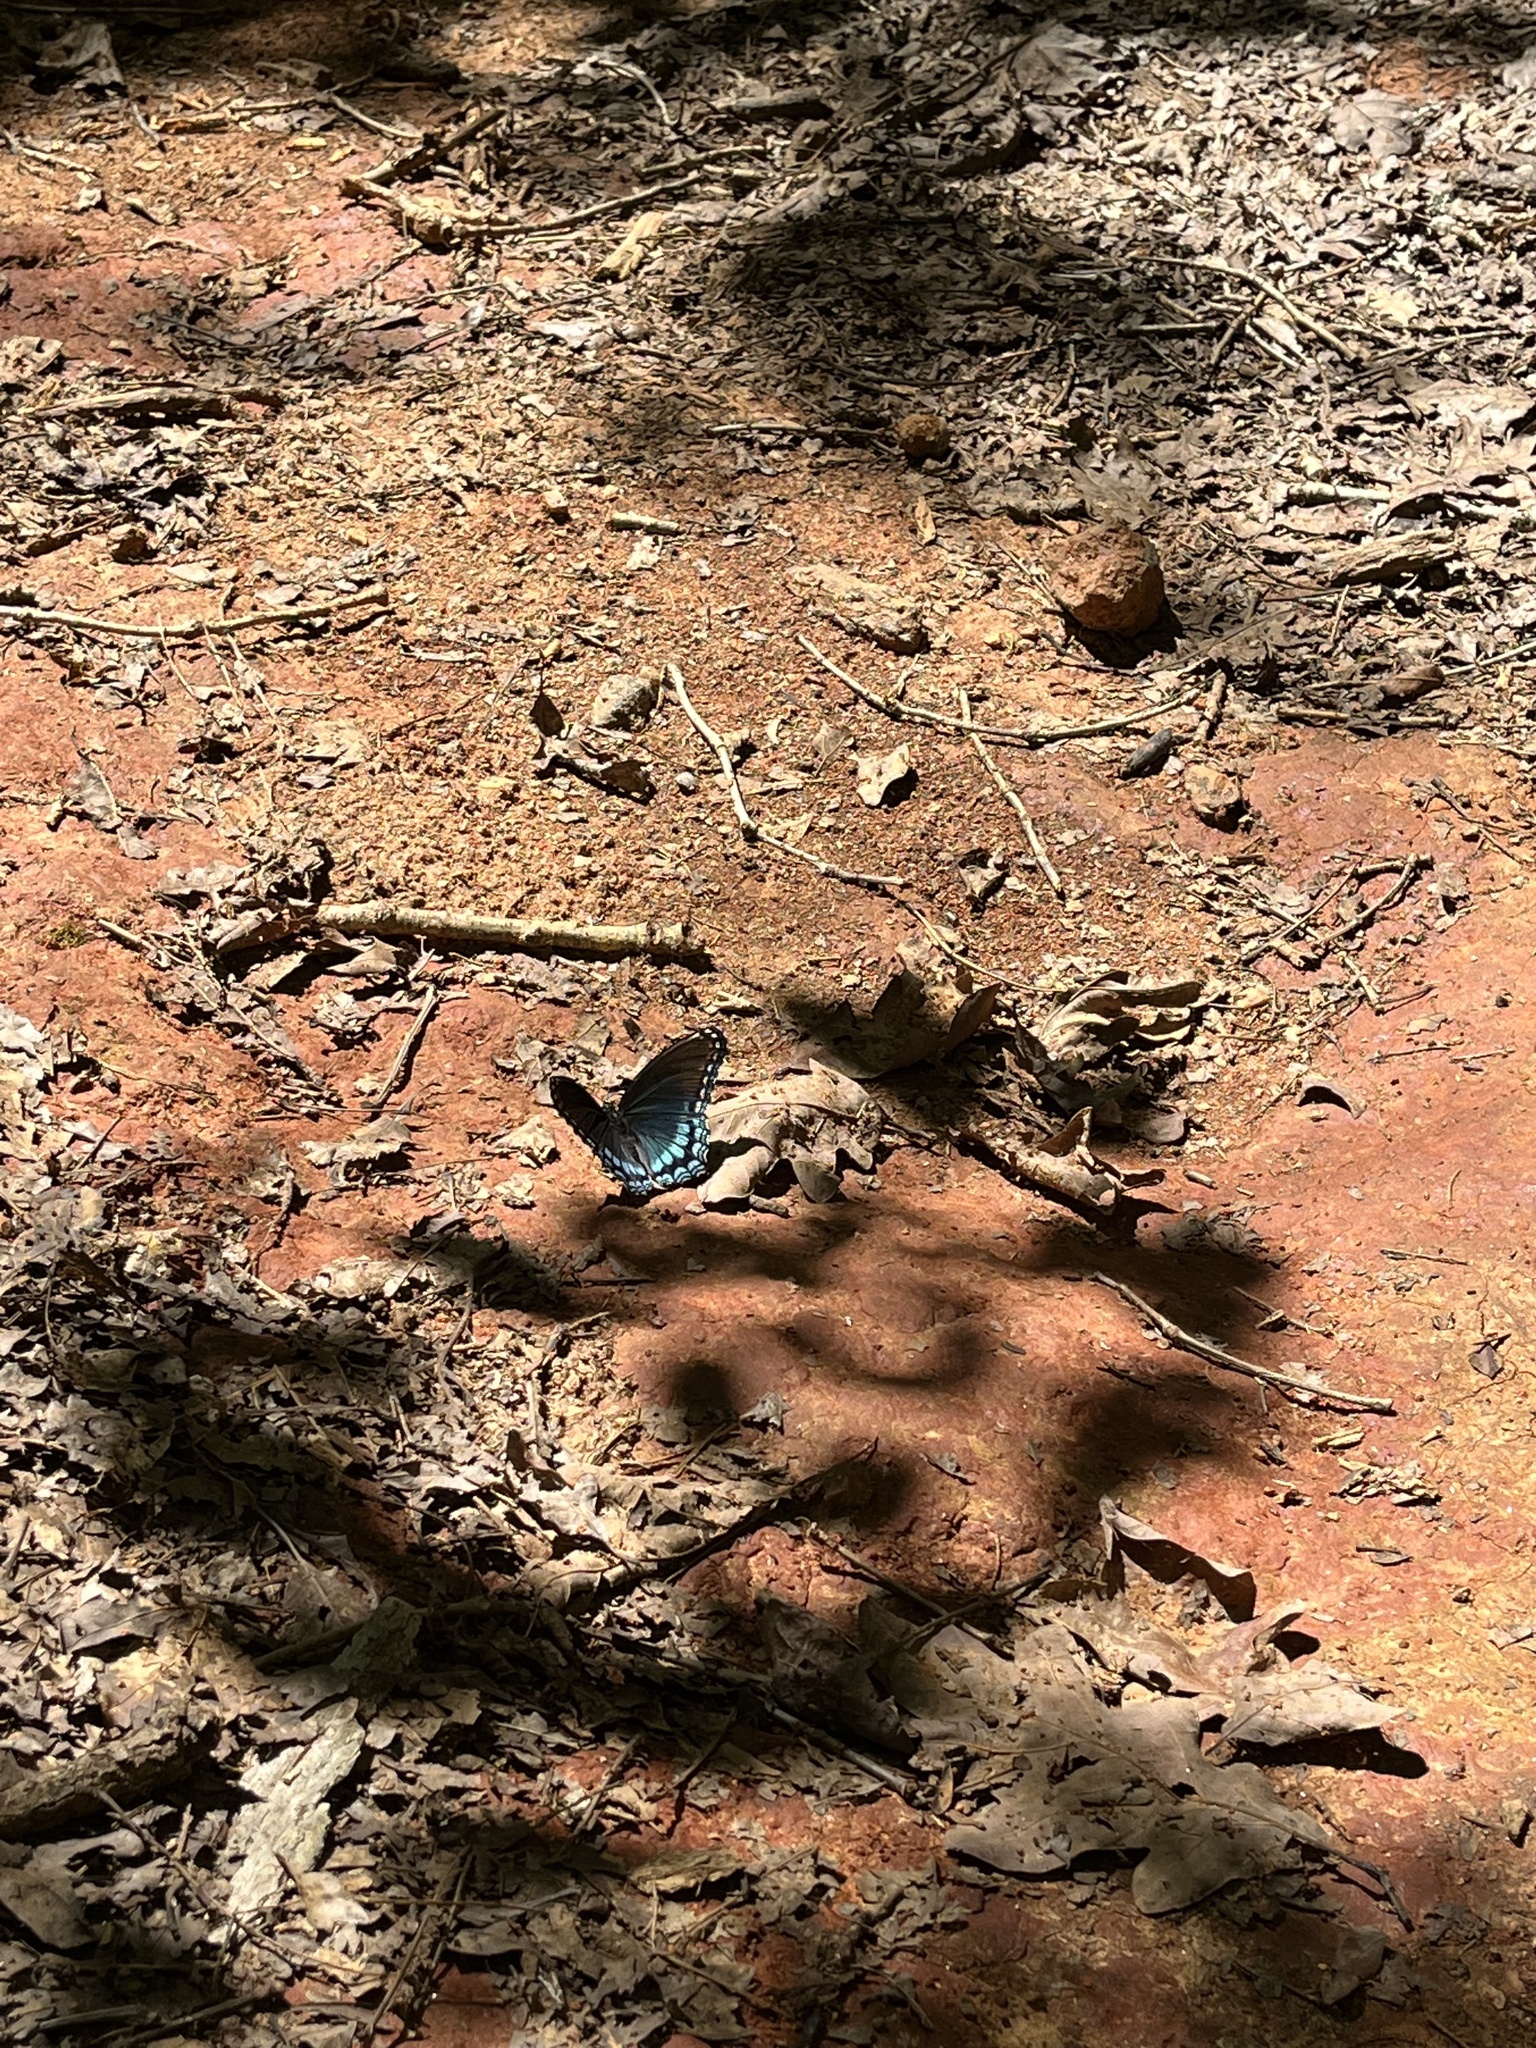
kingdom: Animalia
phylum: Arthropoda
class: Insecta
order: Lepidoptera
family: Nymphalidae
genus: Limenitis
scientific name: Limenitis arthemis
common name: Red-spotted admiral
